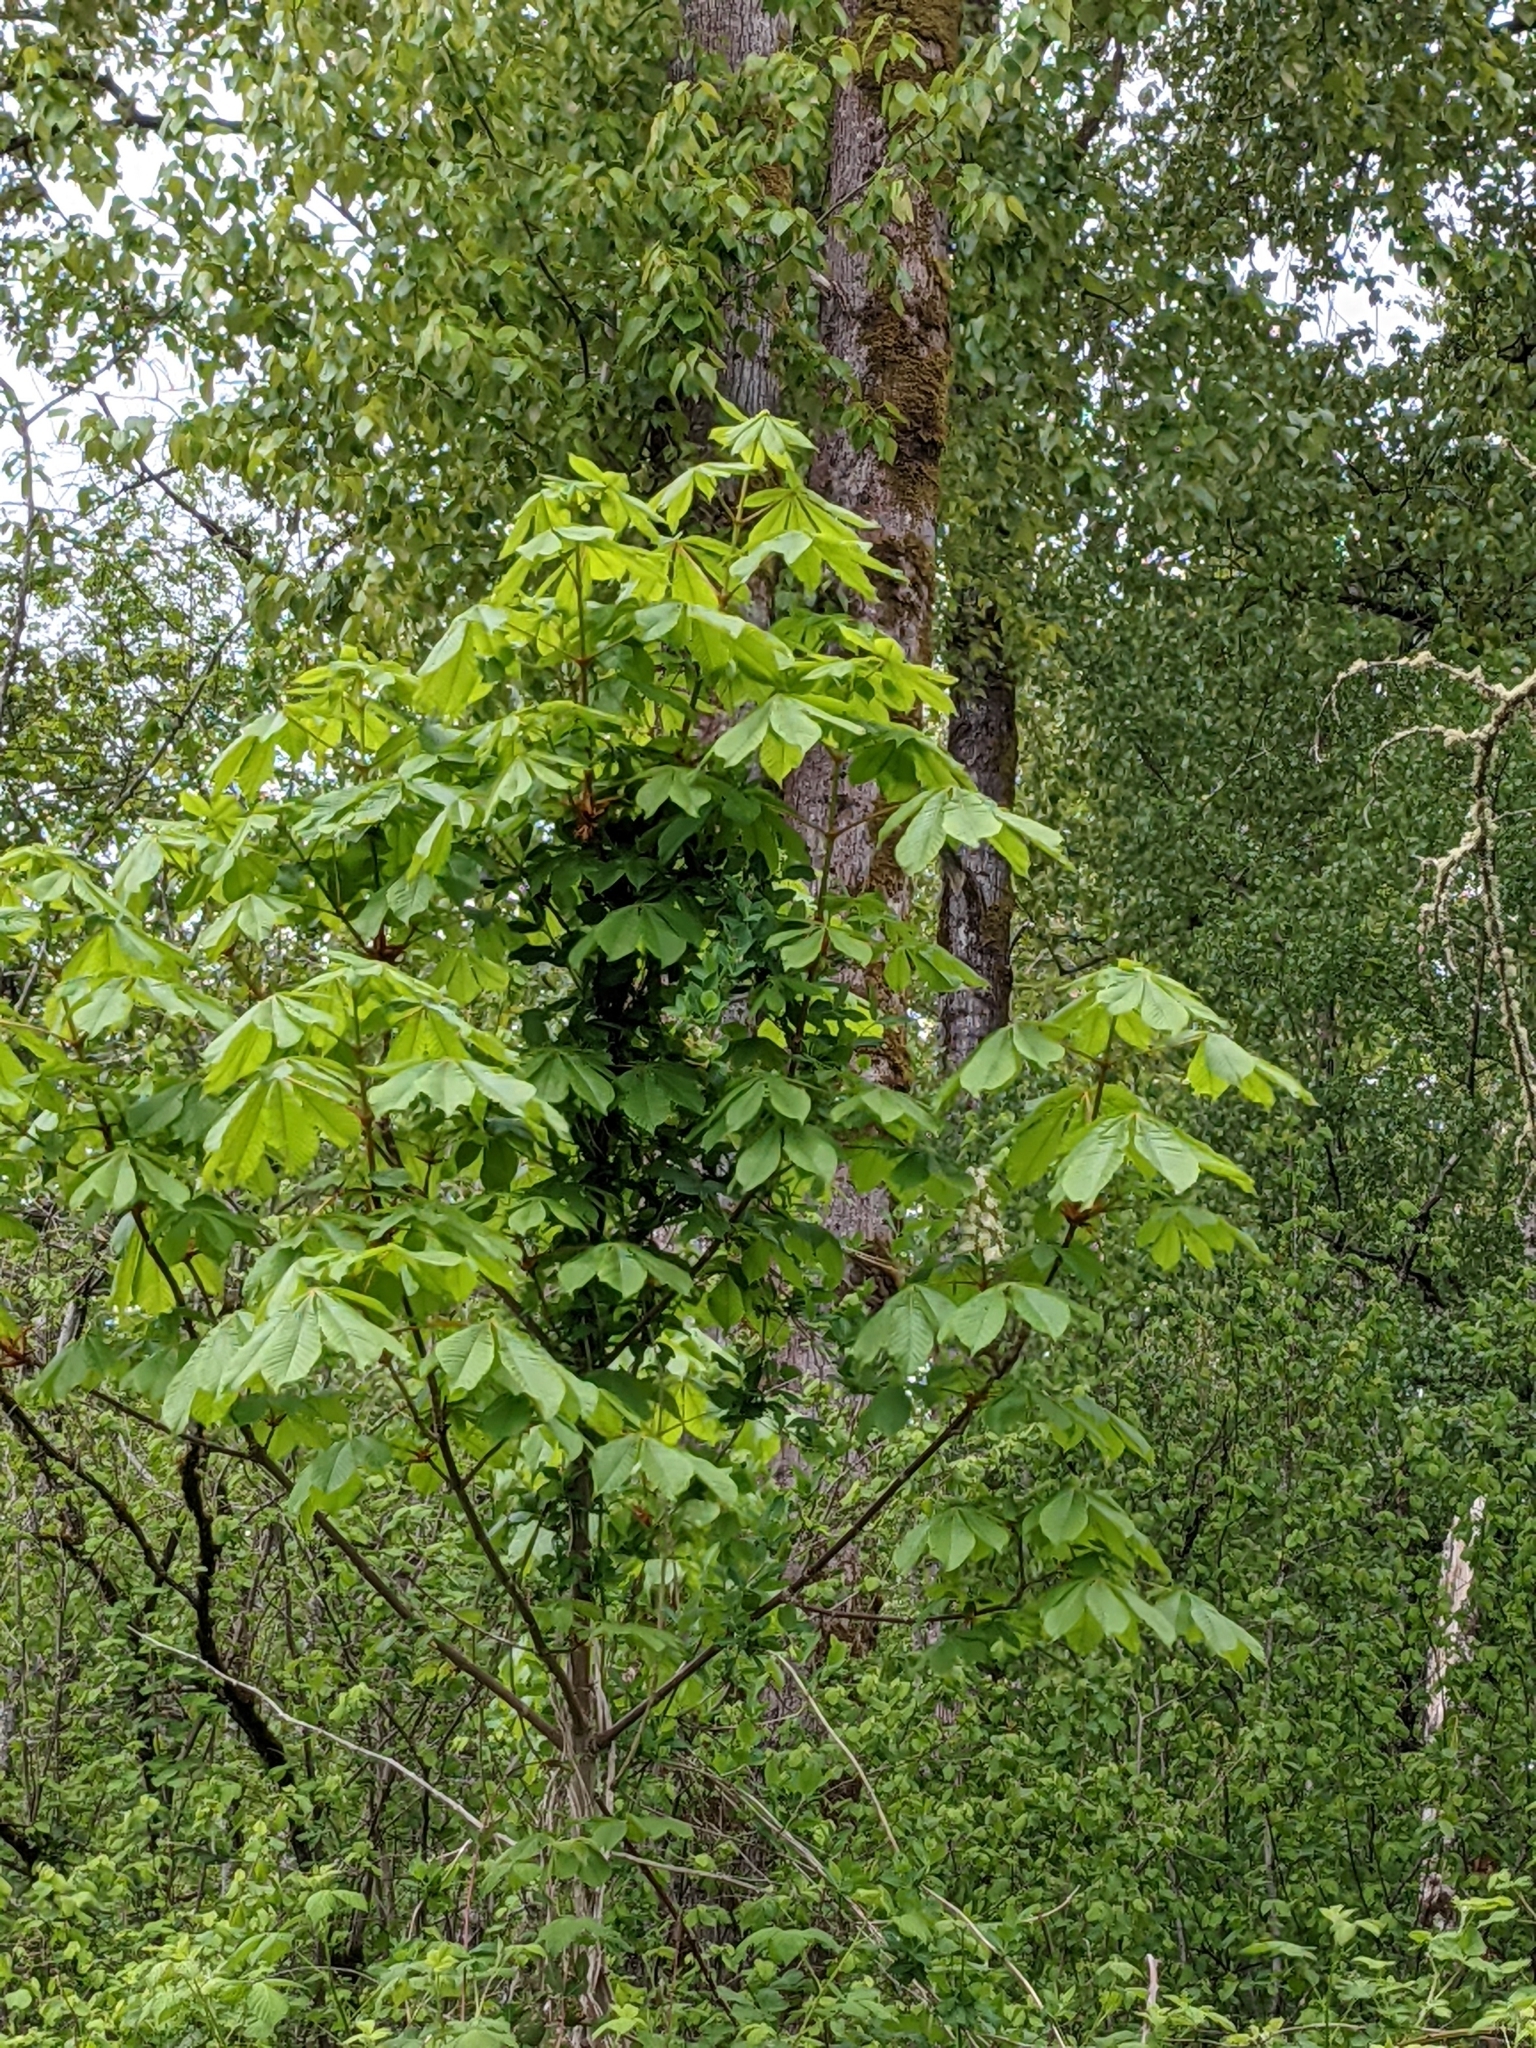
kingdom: Plantae
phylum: Tracheophyta
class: Magnoliopsida
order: Sapindales
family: Sapindaceae
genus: Aesculus
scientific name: Aesculus hippocastanum
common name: Horse-chestnut
